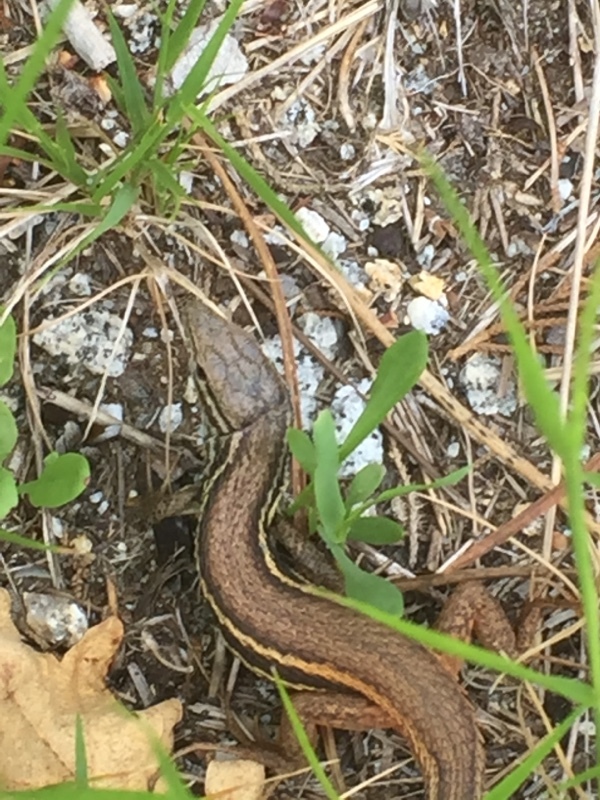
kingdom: Animalia
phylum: Chordata
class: Squamata
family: Lacertidae
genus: Psammodromus
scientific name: Psammodromus algirus
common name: Algerian psammodromus
